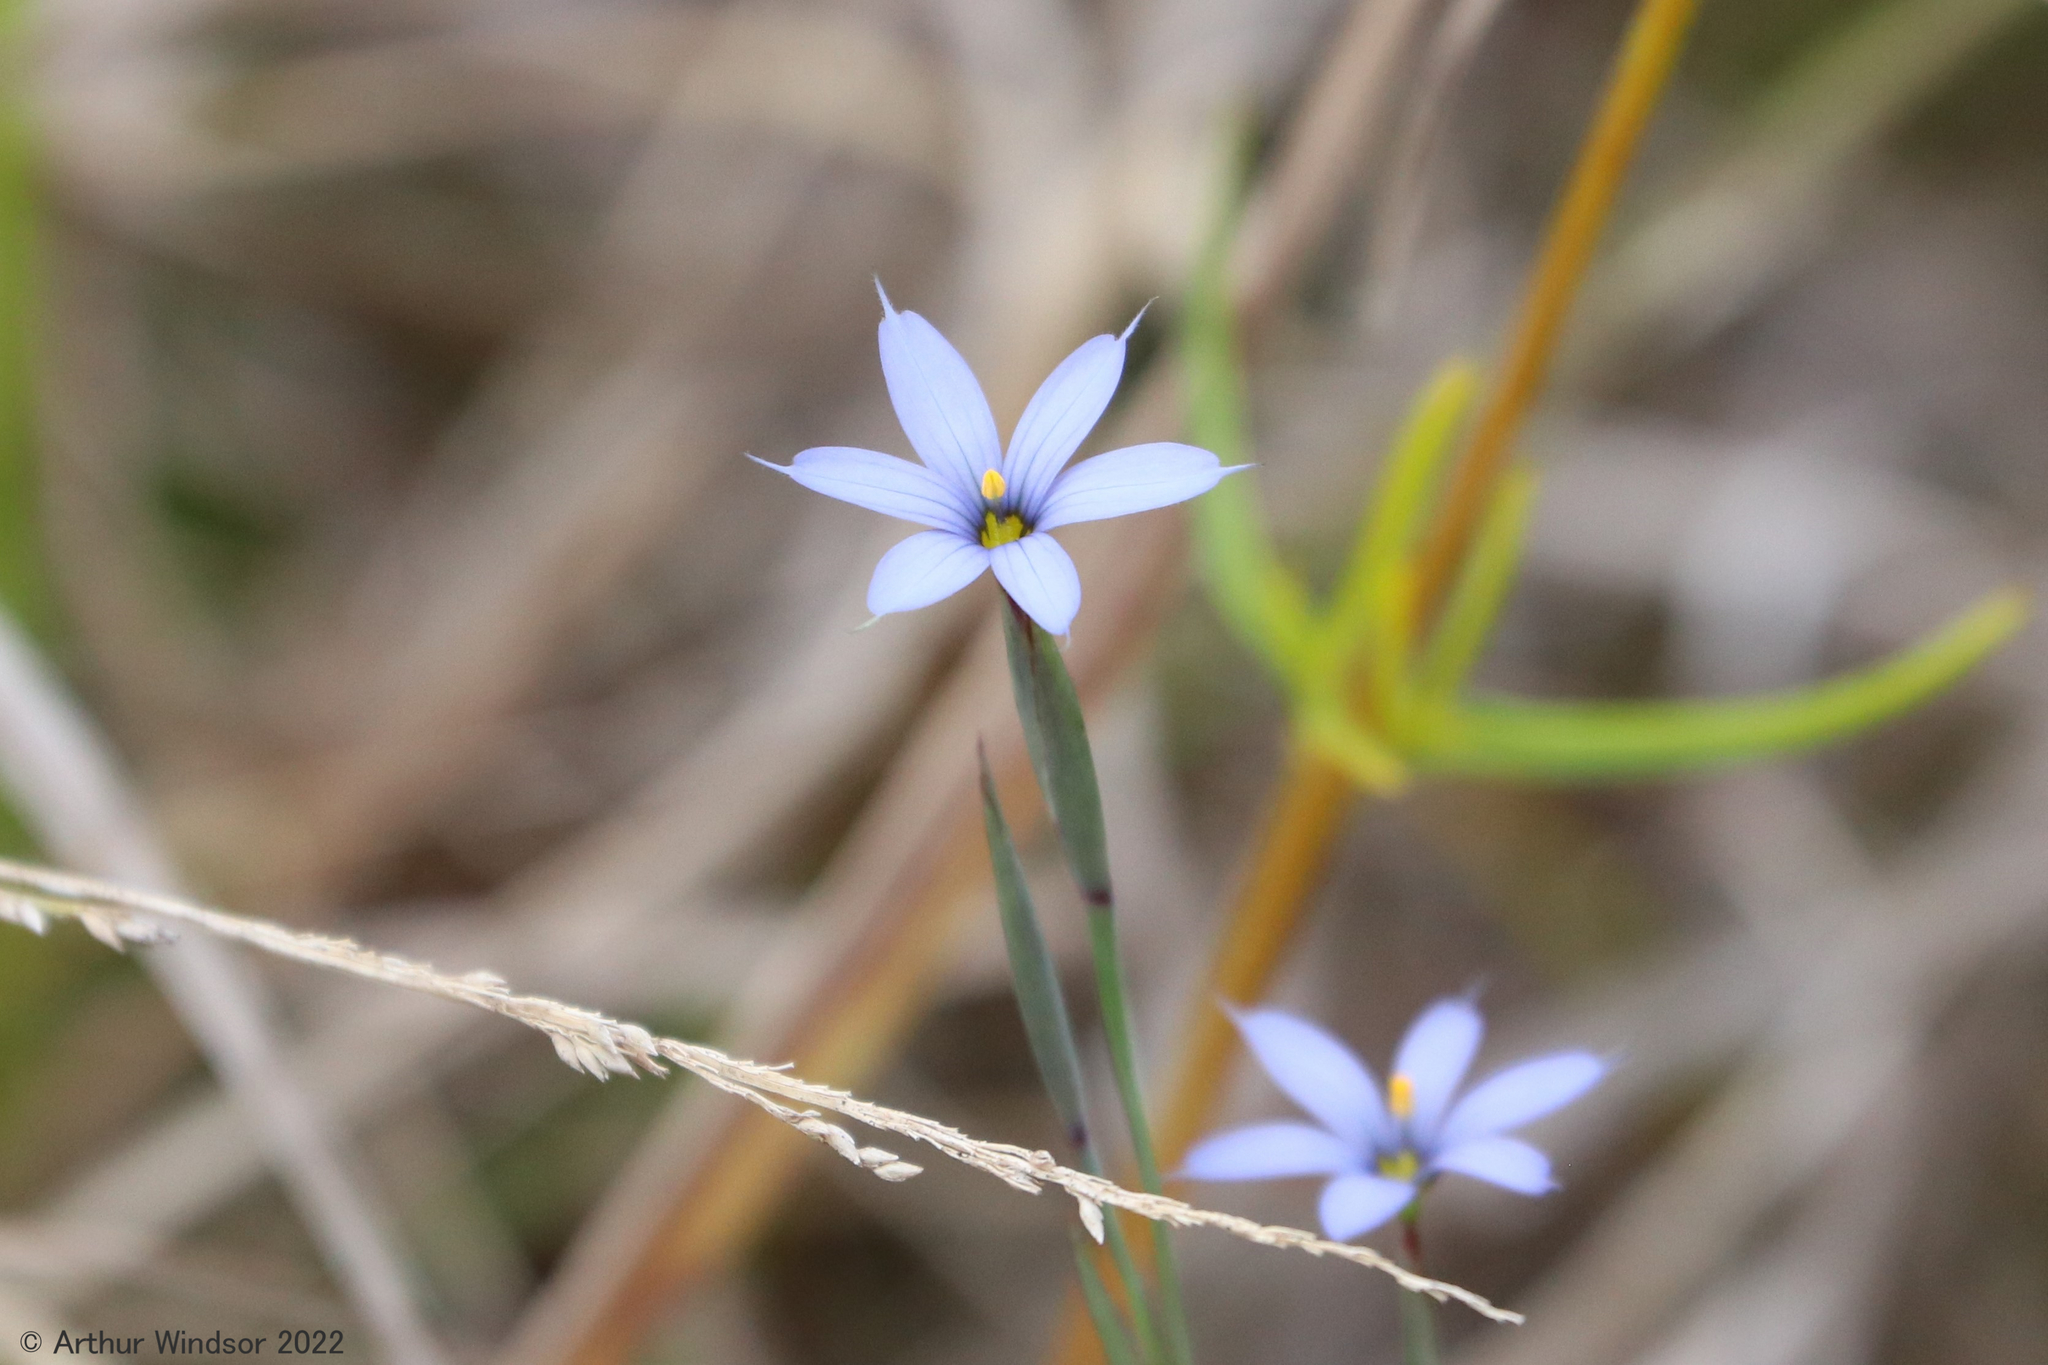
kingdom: Plantae
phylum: Tracheophyta
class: Liliopsida
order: Asparagales
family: Iridaceae
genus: Sisyrinchium
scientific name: Sisyrinchium angustifolium
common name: Narrow-leaf blue-eyed-grass
